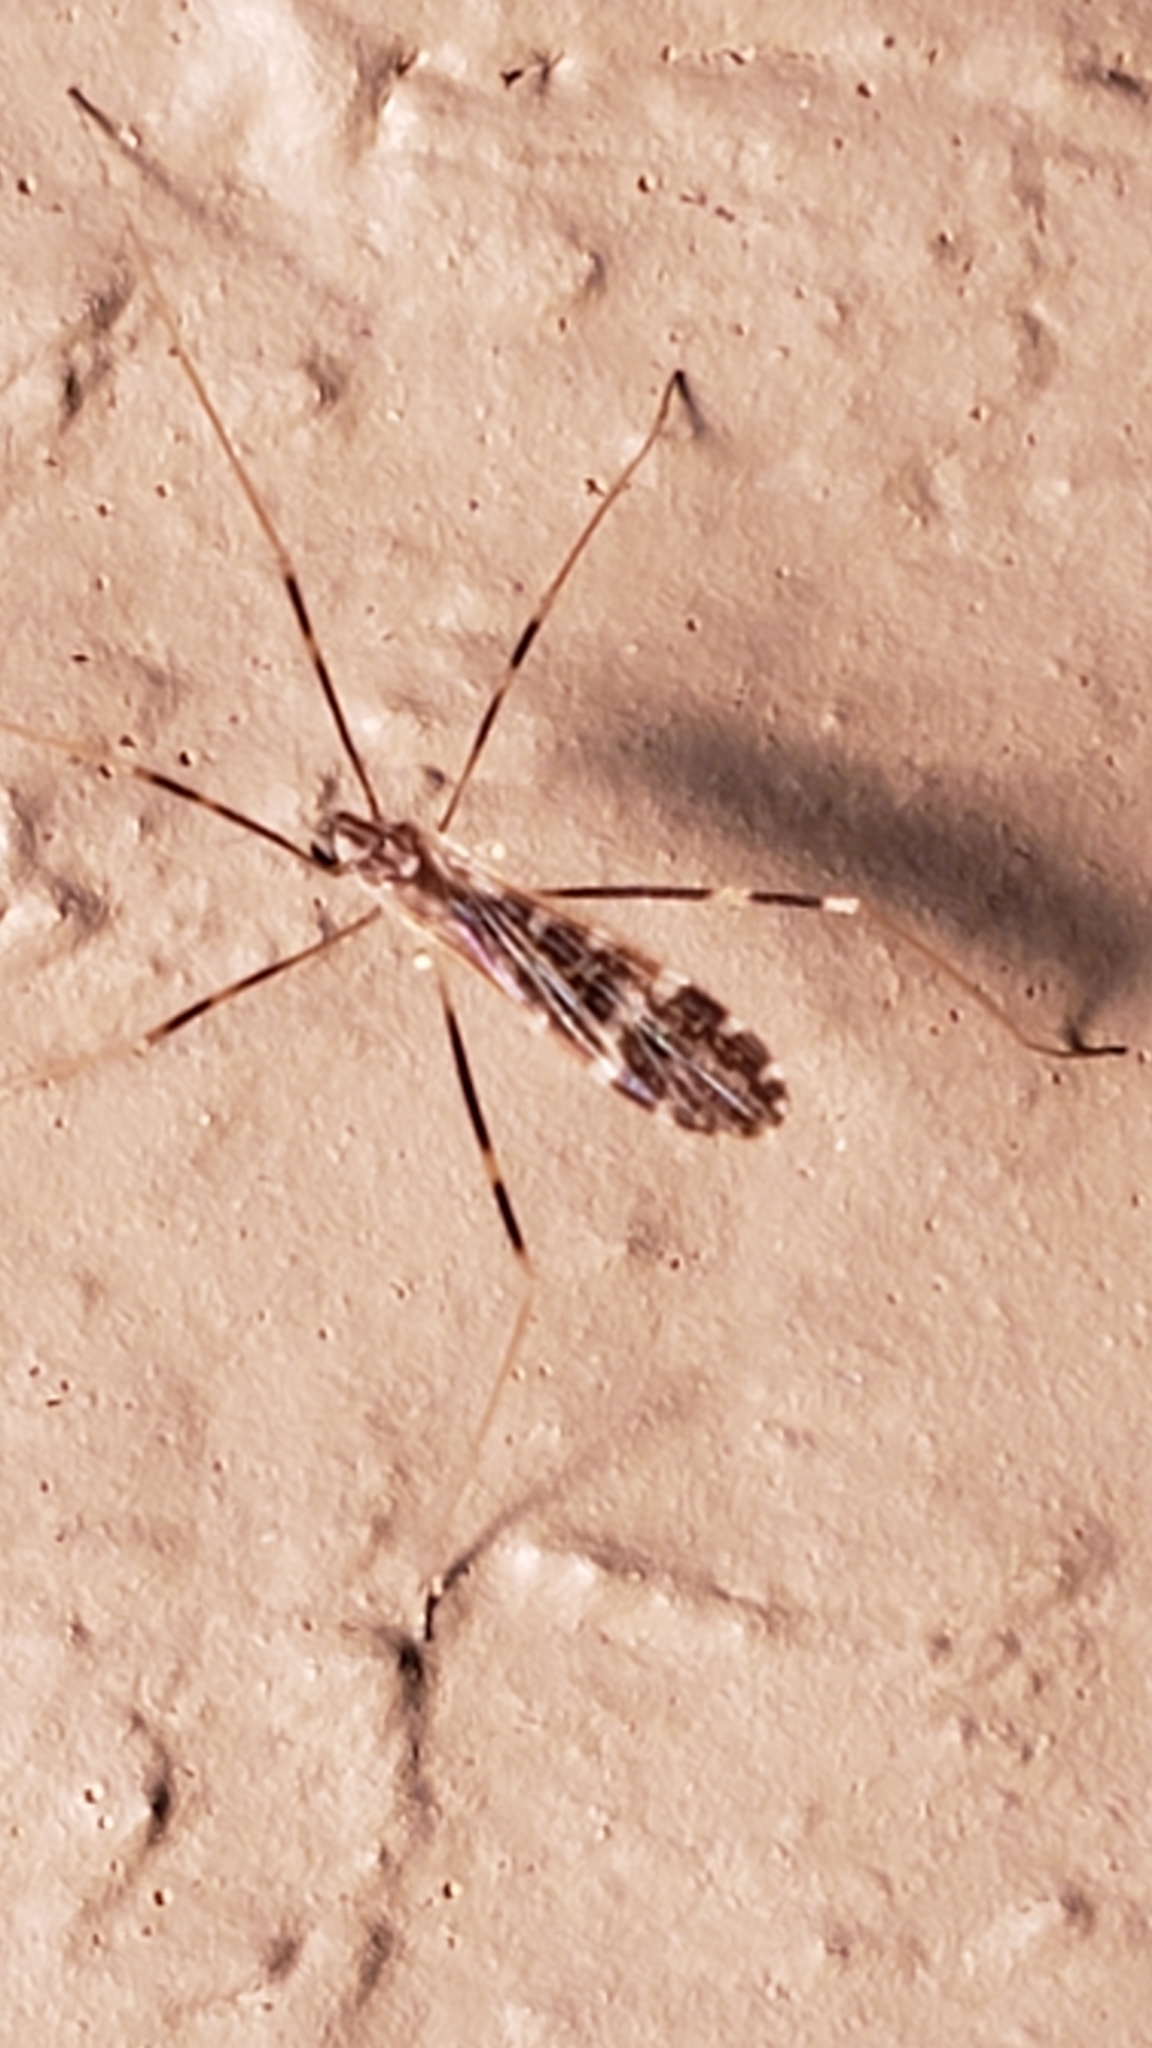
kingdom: Animalia
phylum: Arthropoda
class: Insecta
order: Diptera
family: Limoniidae
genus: Erioptera
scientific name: Erioptera caliptera
